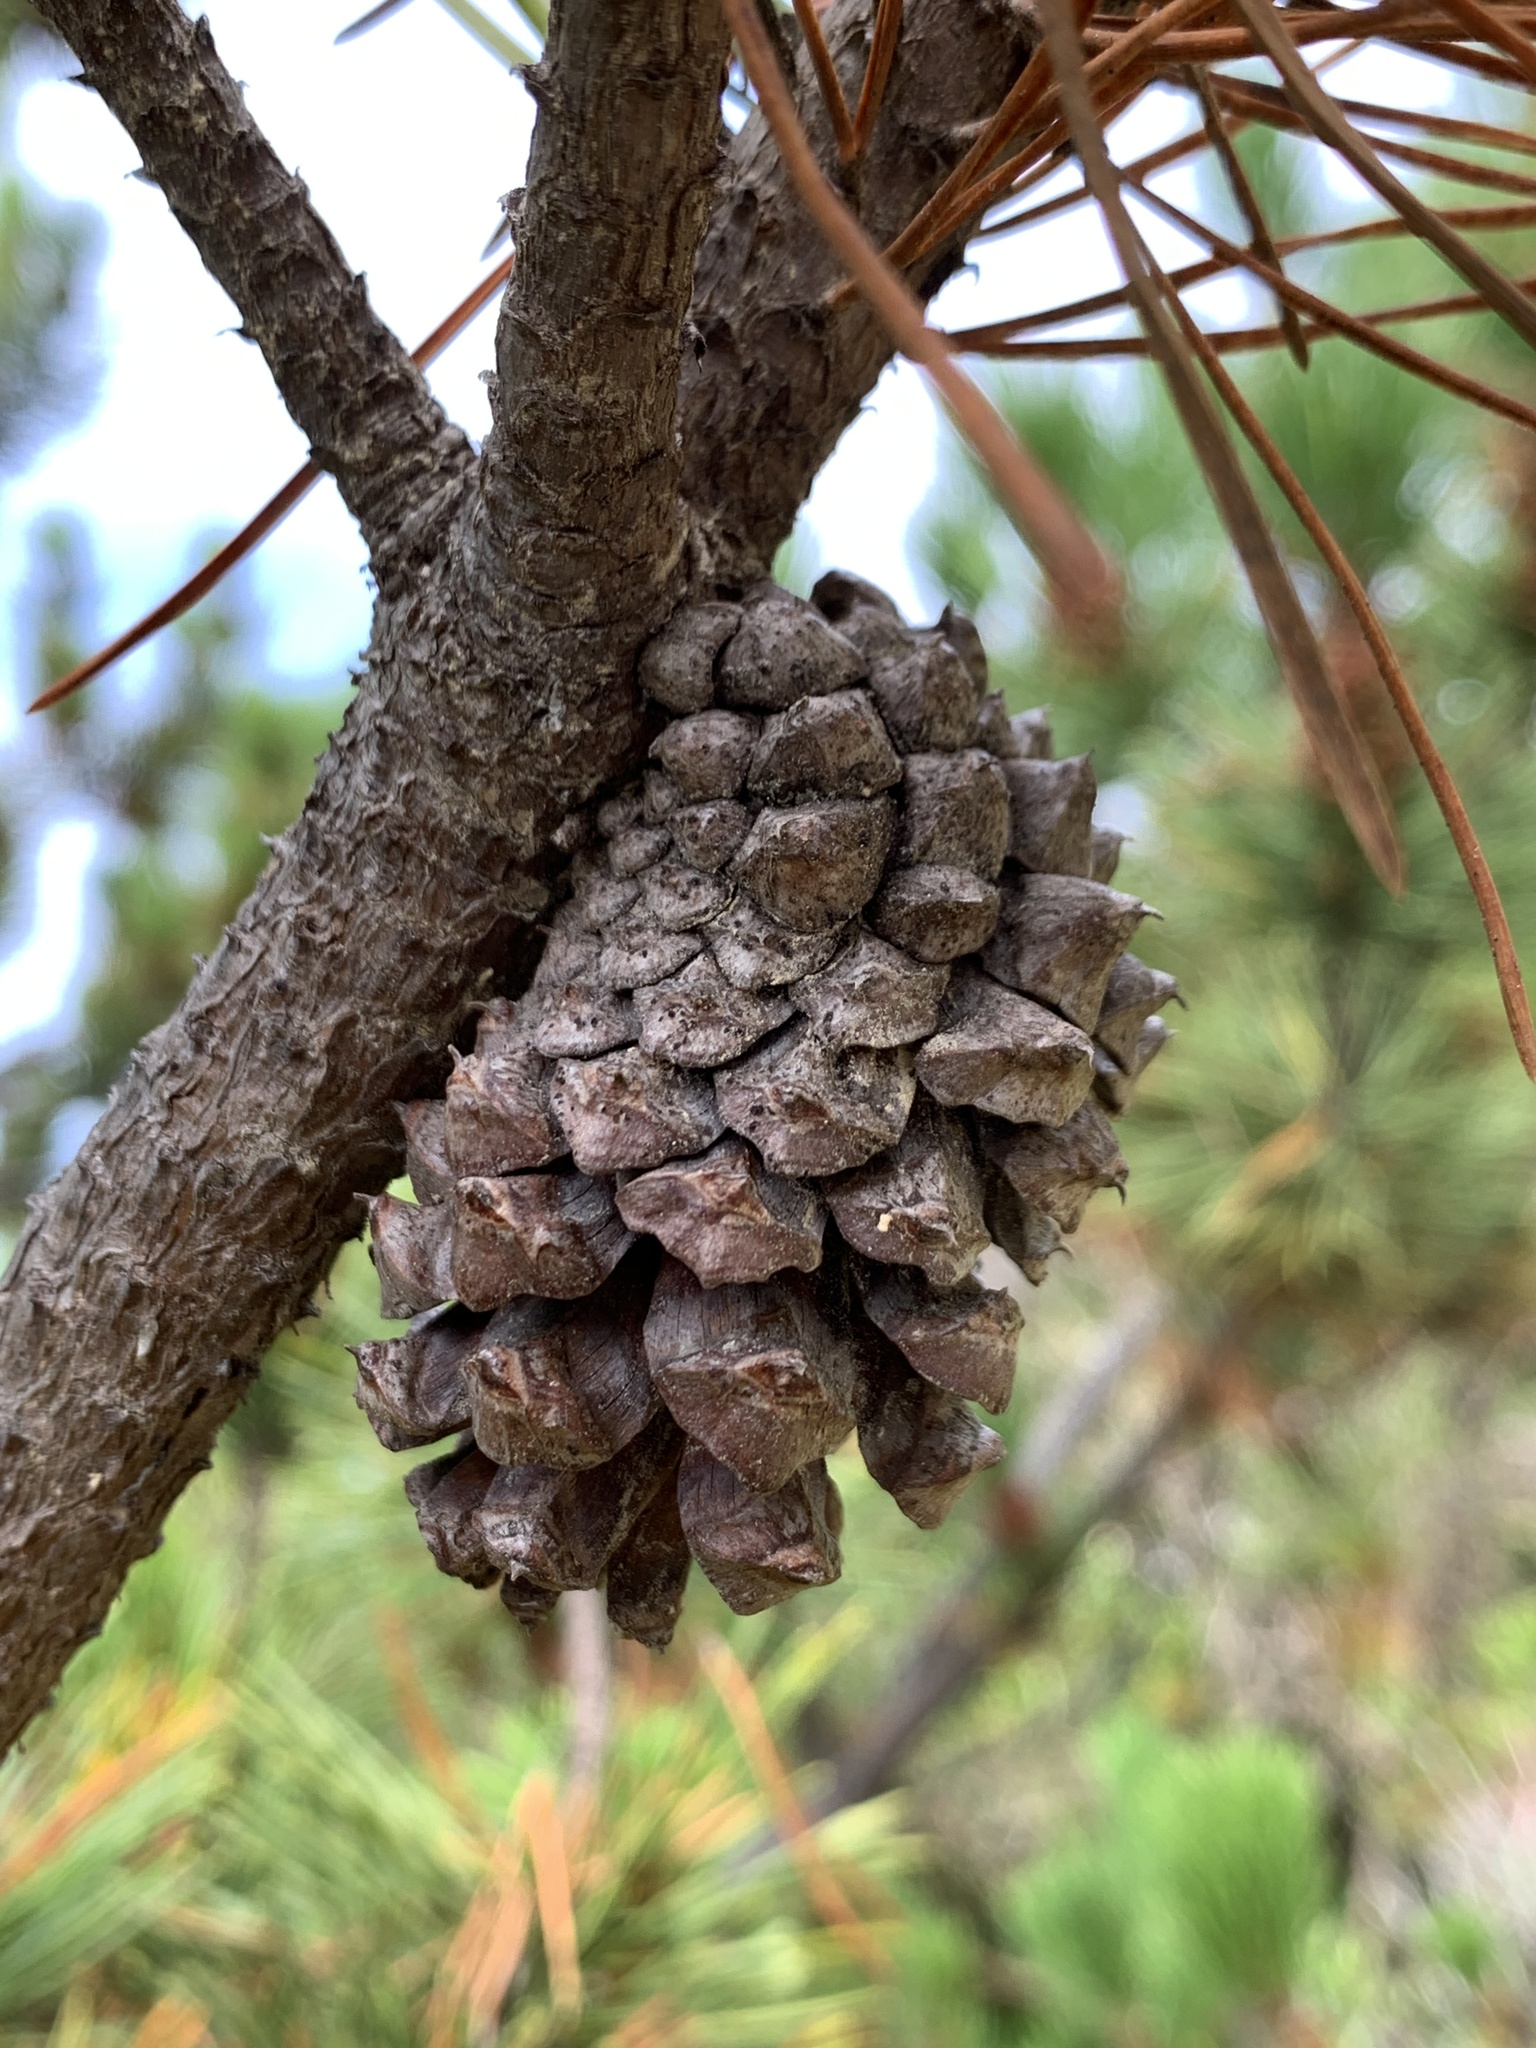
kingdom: Plantae
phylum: Tracheophyta
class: Pinopsida
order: Pinales
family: Pinaceae
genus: Pinus
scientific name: Pinus contorta
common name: Lodgepole pine
